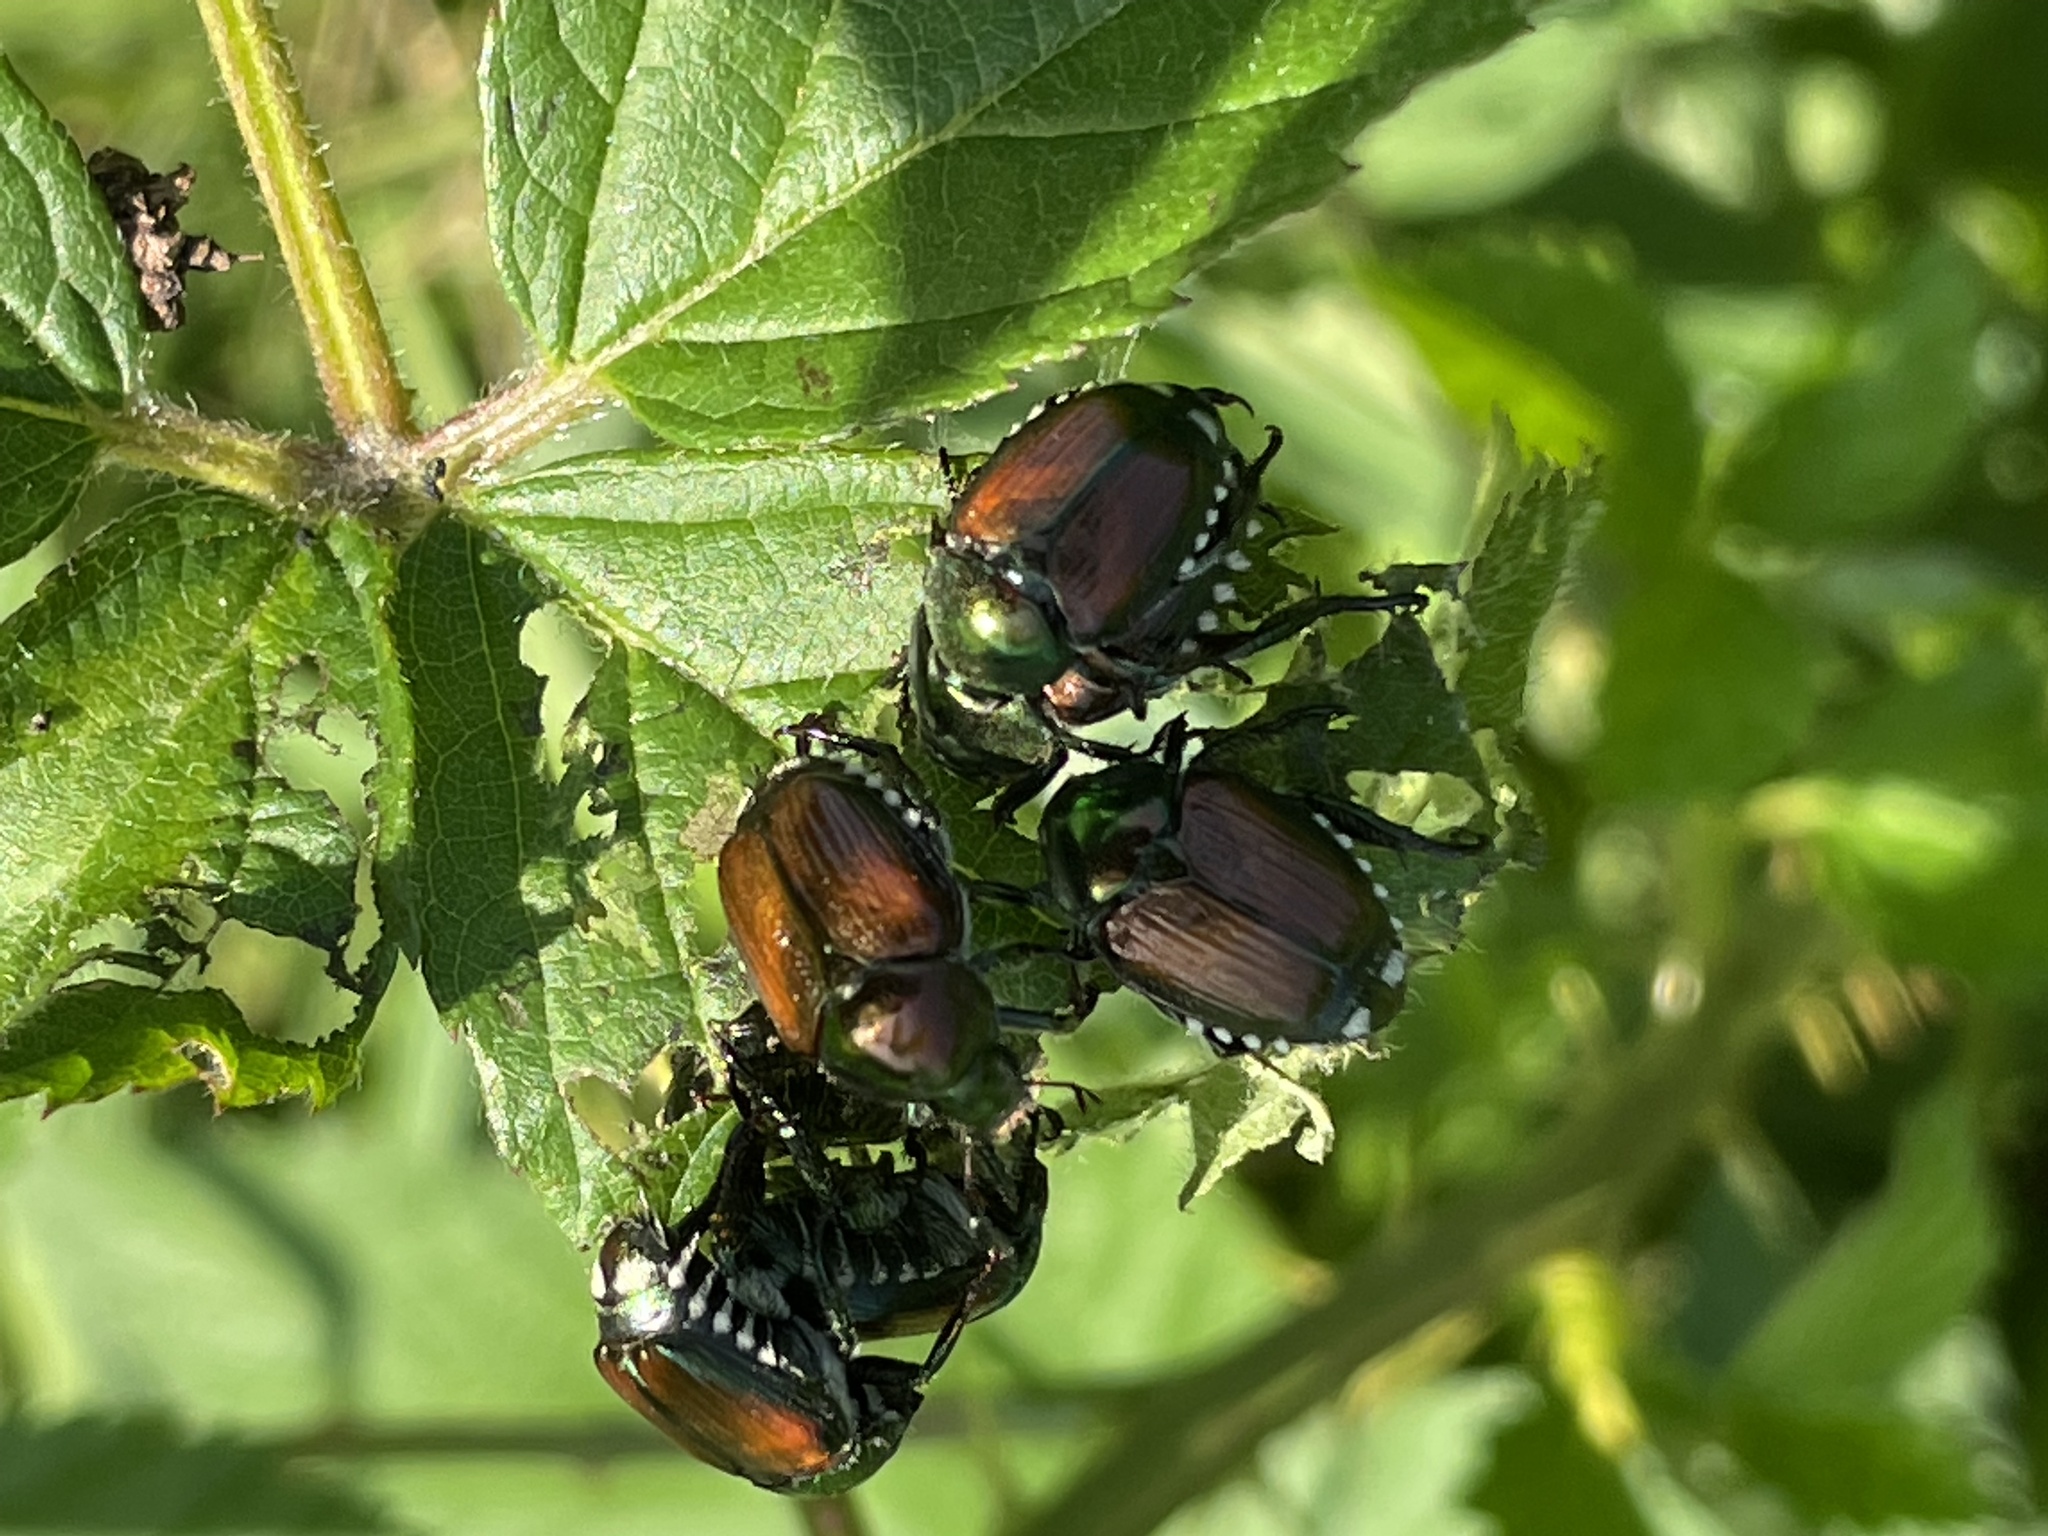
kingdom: Animalia
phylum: Arthropoda
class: Insecta
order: Coleoptera
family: Scarabaeidae
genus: Popillia
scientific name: Popillia japonica
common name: Japanese beetle
